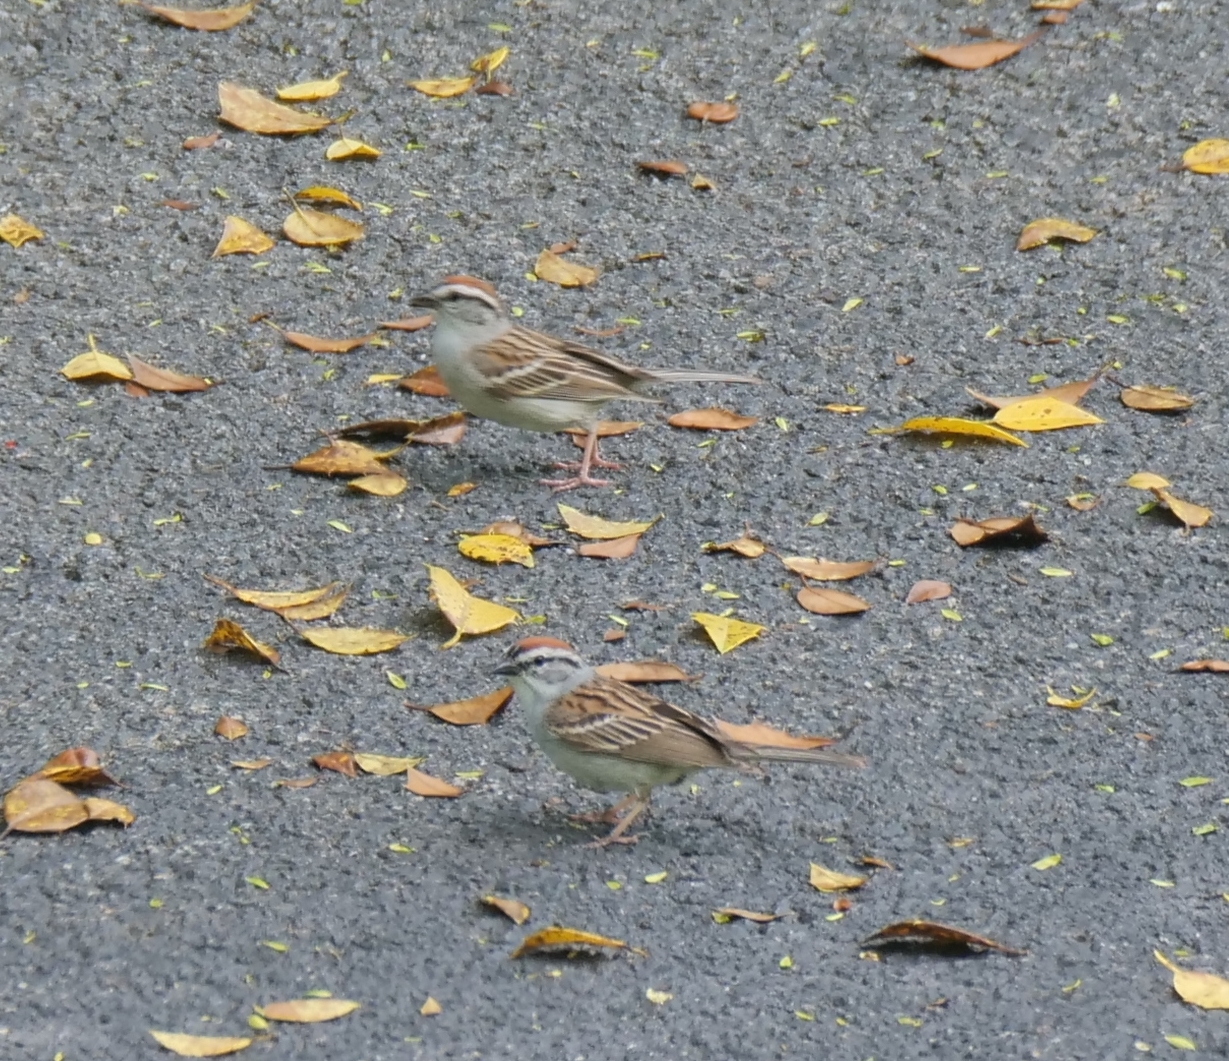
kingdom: Animalia
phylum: Chordata
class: Aves
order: Passeriformes
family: Passerellidae
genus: Spizella
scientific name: Spizella passerina
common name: Chipping sparrow
